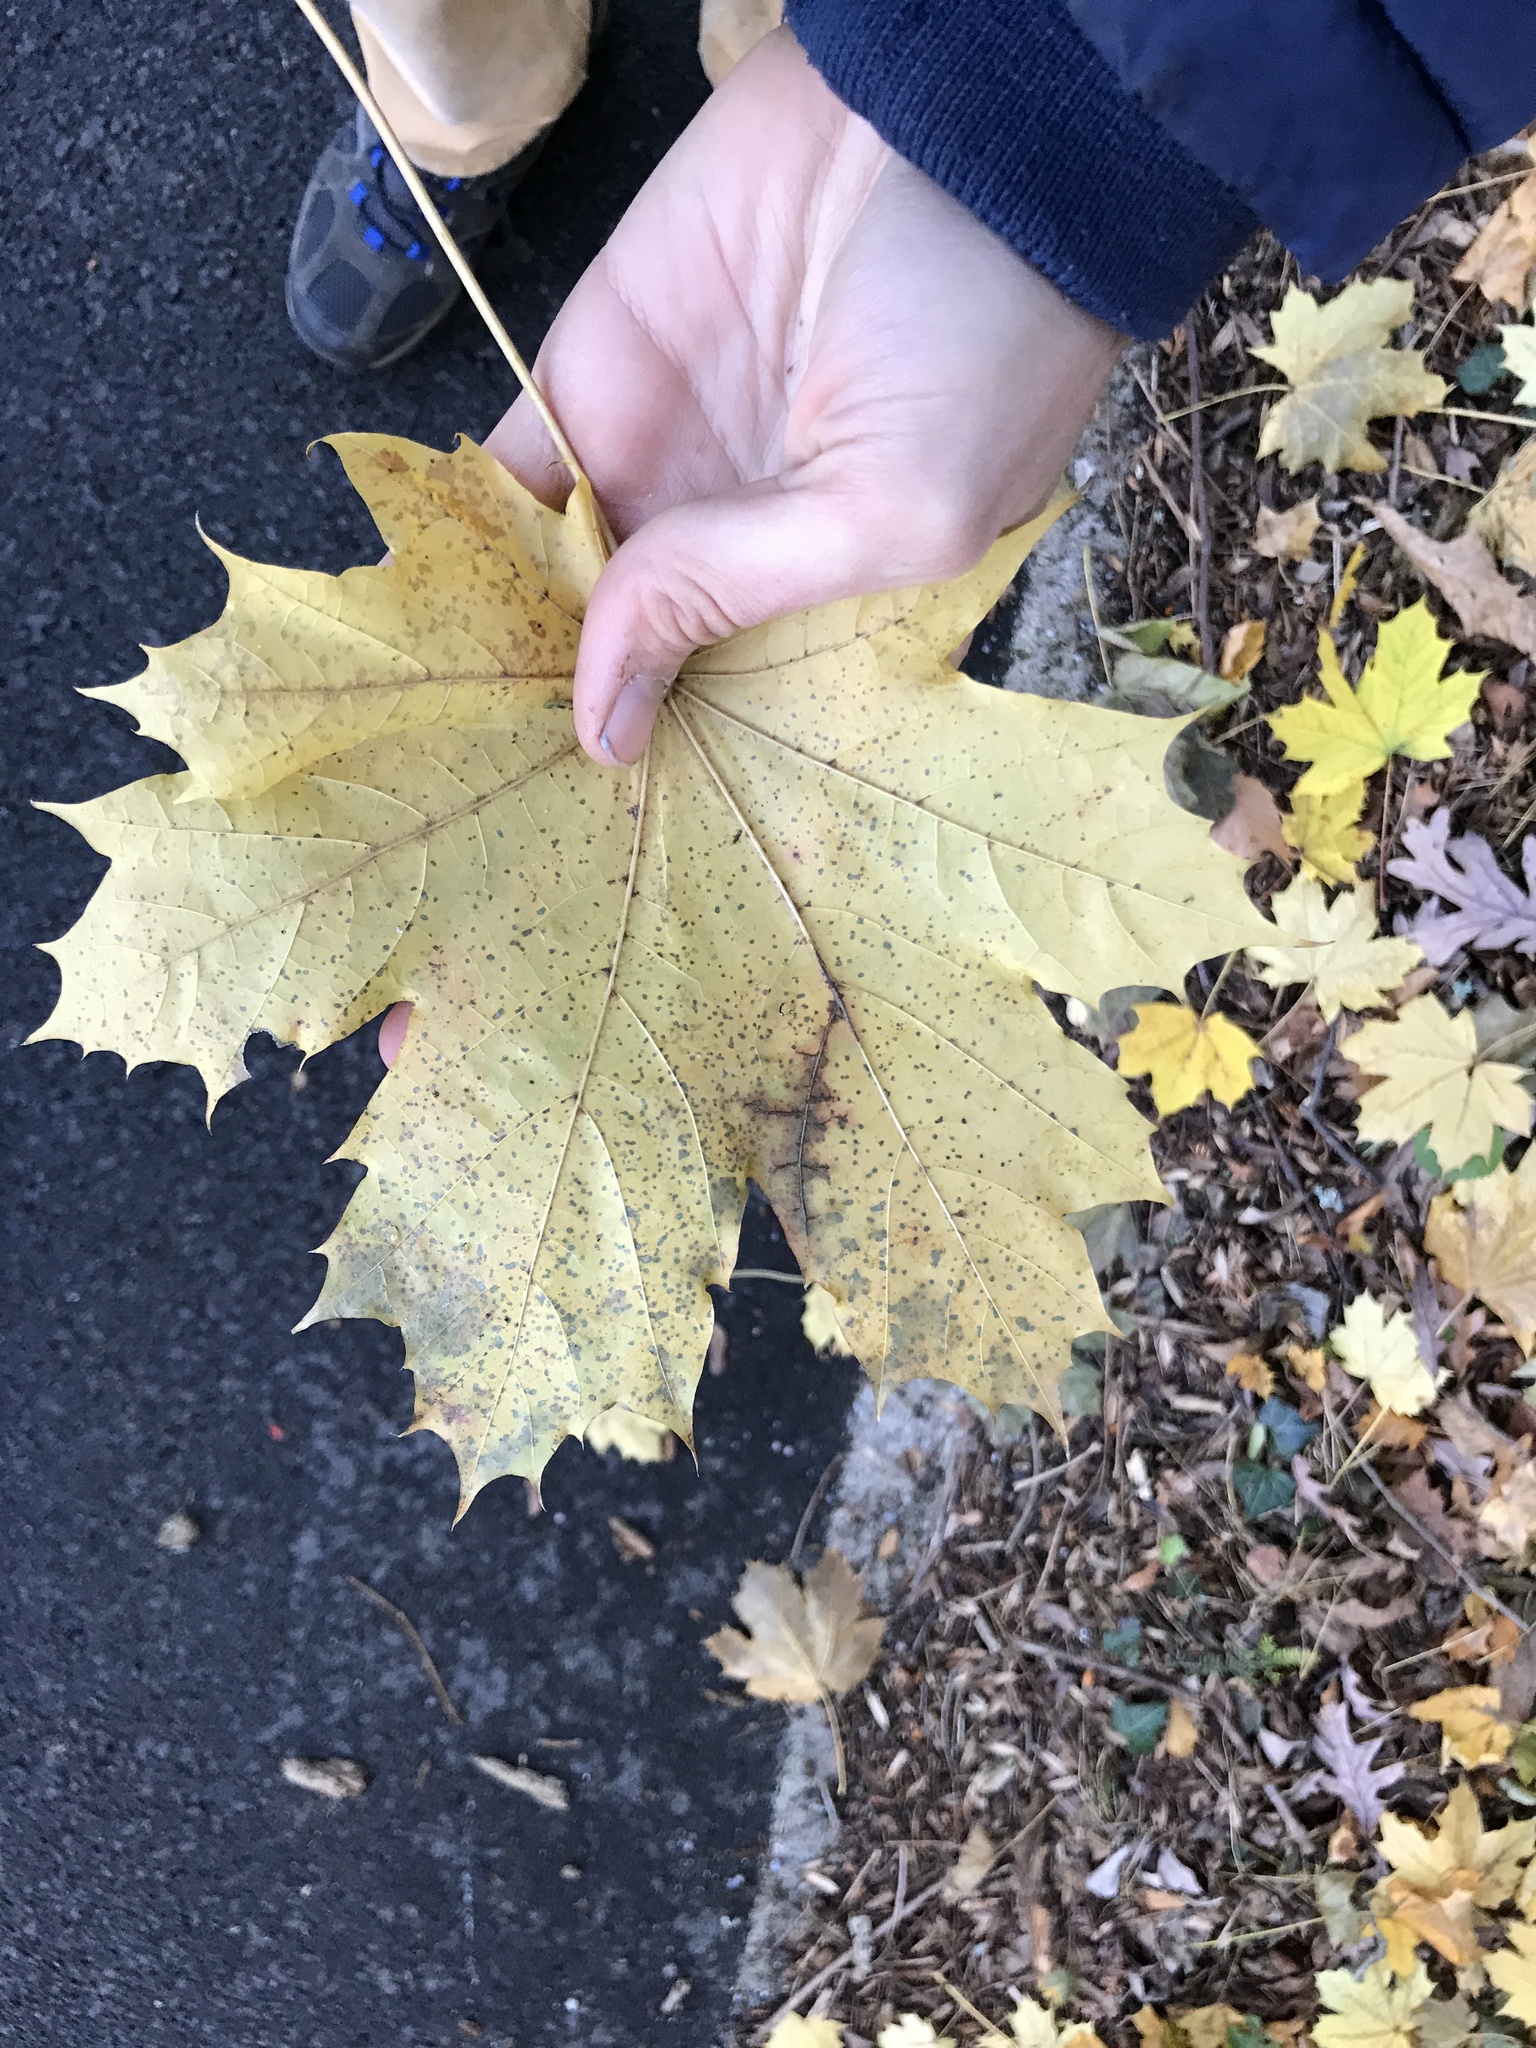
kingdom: Plantae
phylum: Tracheophyta
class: Magnoliopsida
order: Sapindales
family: Sapindaceae
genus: Acer
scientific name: Acer platanoides
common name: Norway maple
